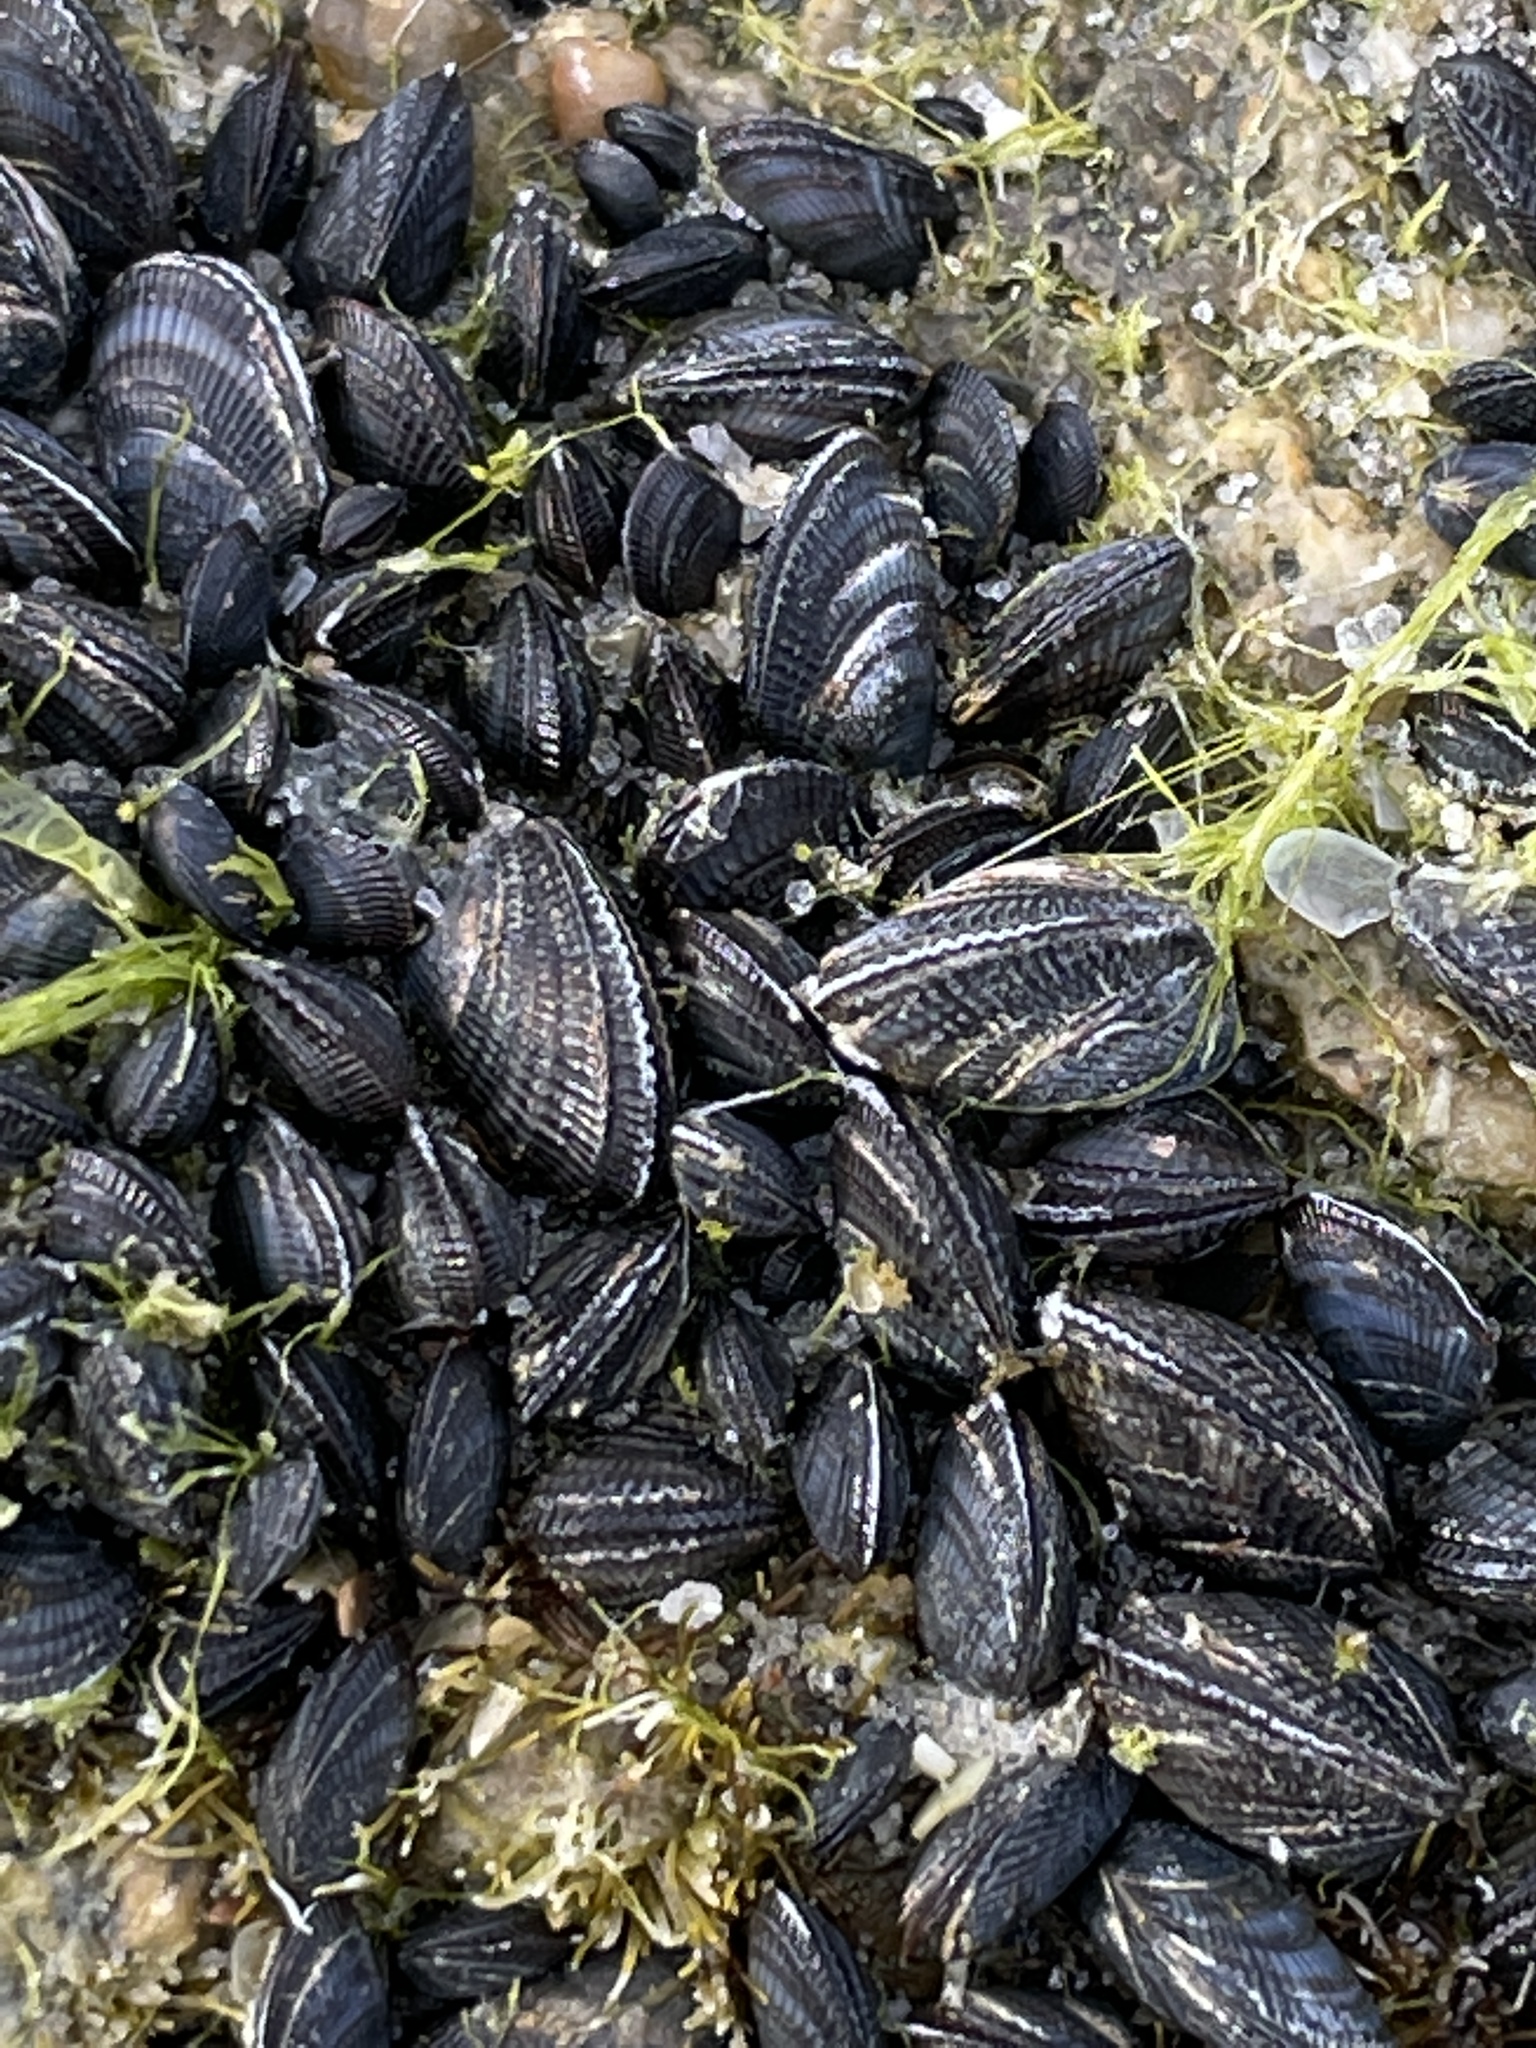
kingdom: Animalia
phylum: Mollusca
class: Bivalvia
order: Mytilida
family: Mytilidae
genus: Geukensia
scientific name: Geukensia demissa
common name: Ribbed mussel
